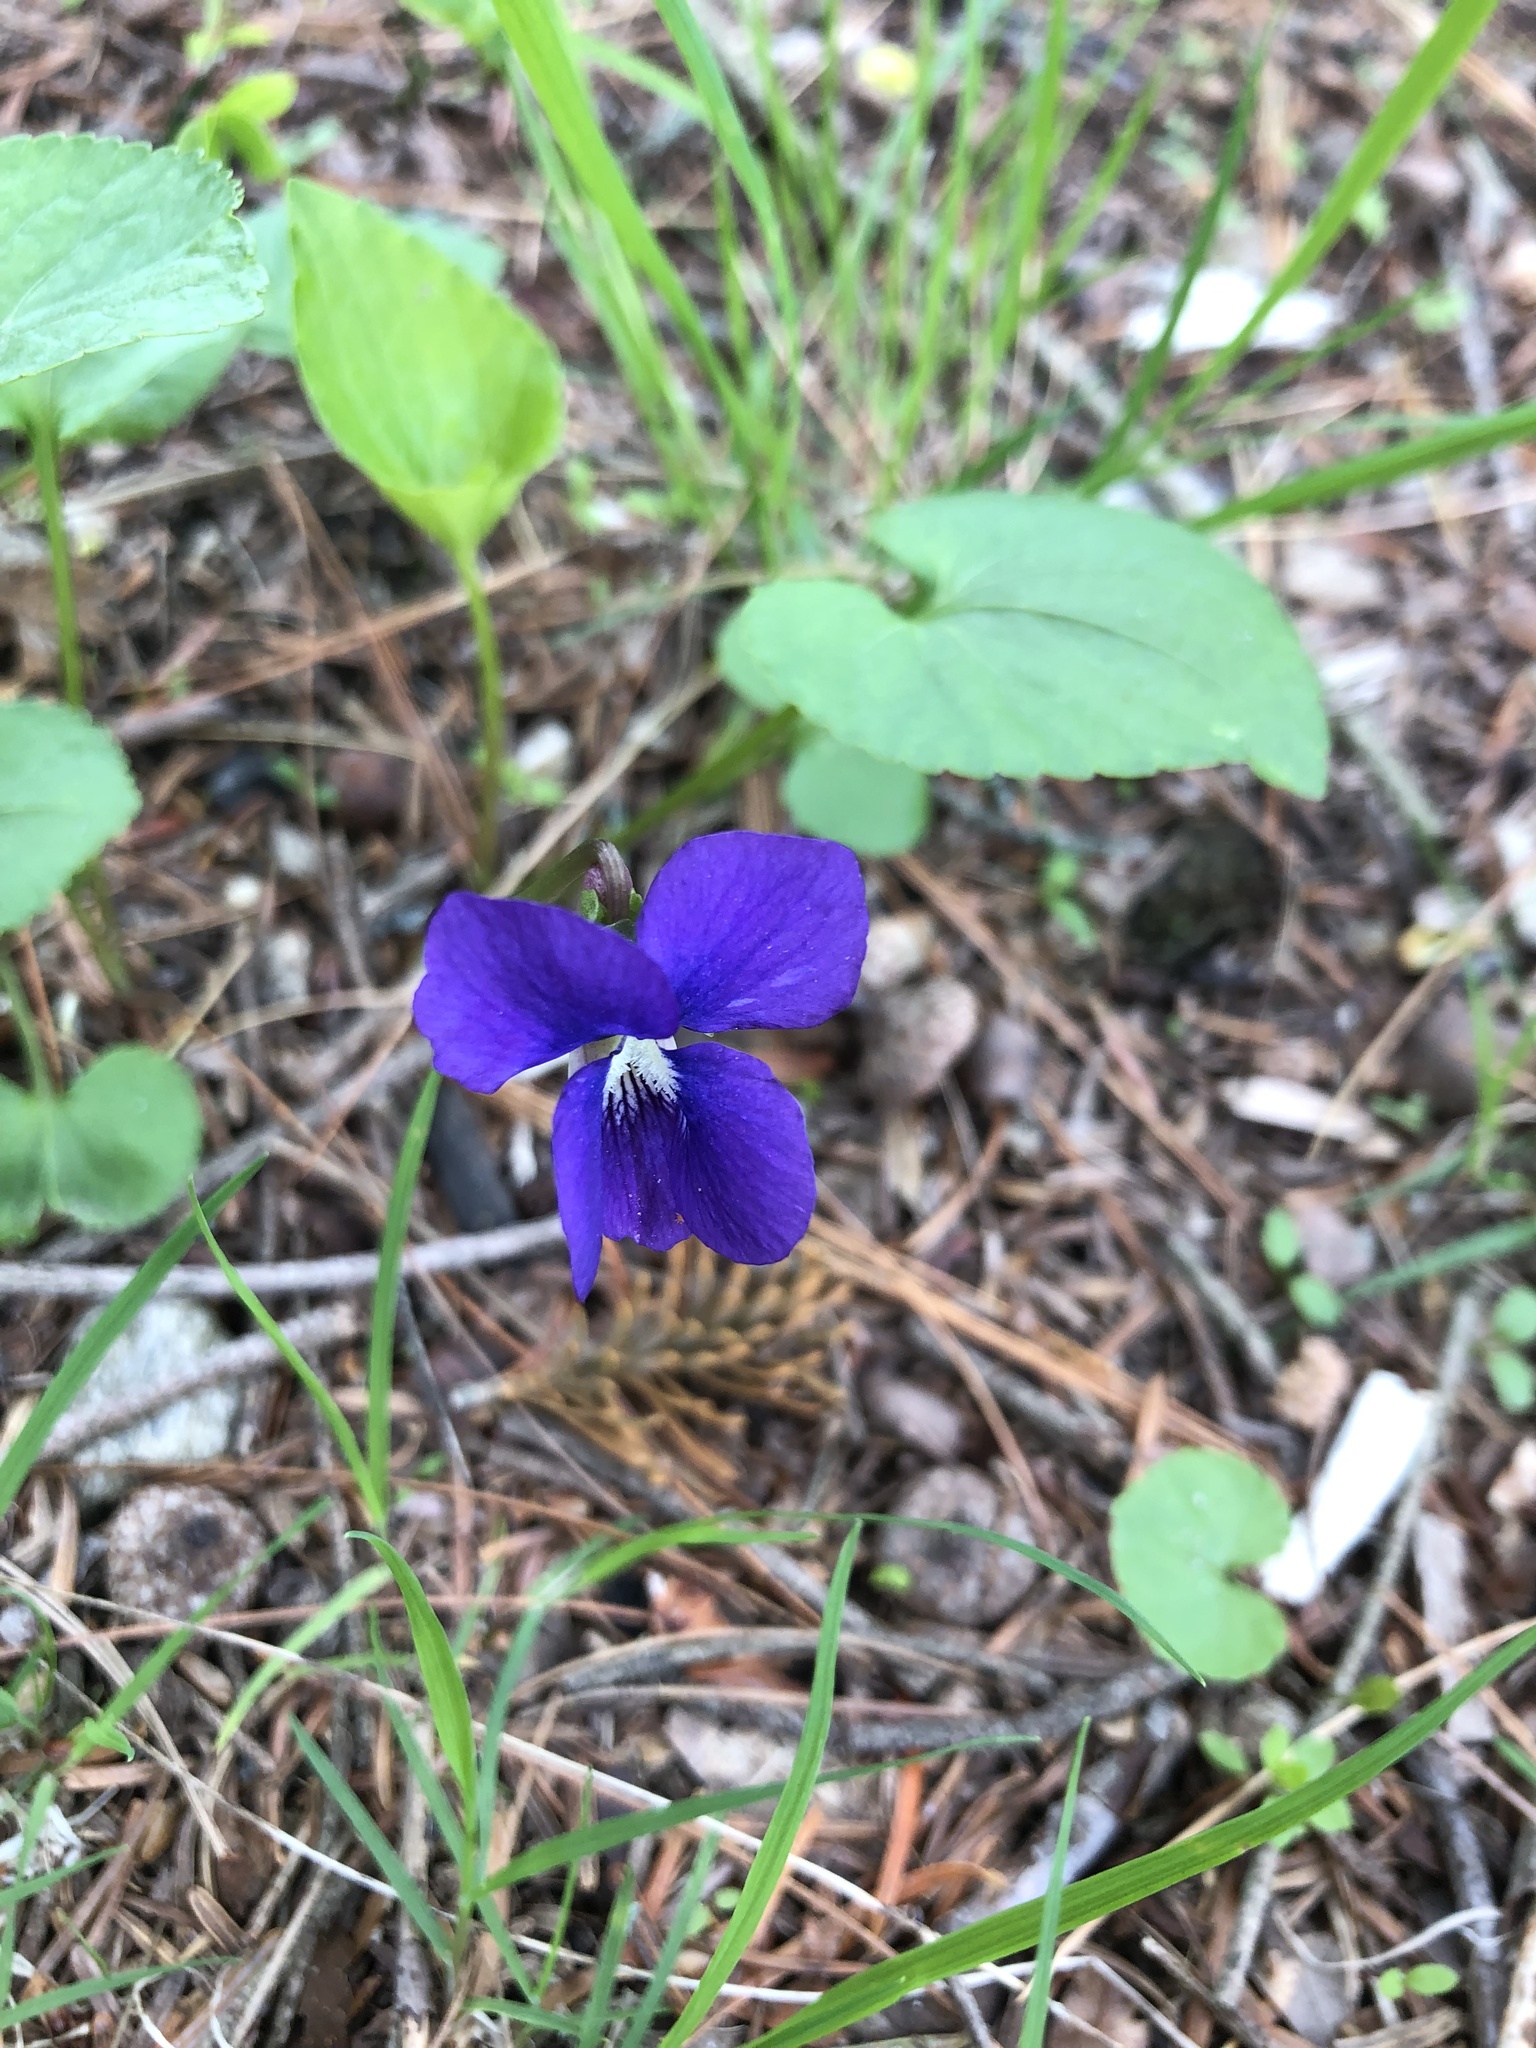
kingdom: Plantae
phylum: Tracheophyta
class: Magnoliopsida
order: Malpighiales
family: Violaceae
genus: Viola
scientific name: Viola sororia
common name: Dooryard violet
